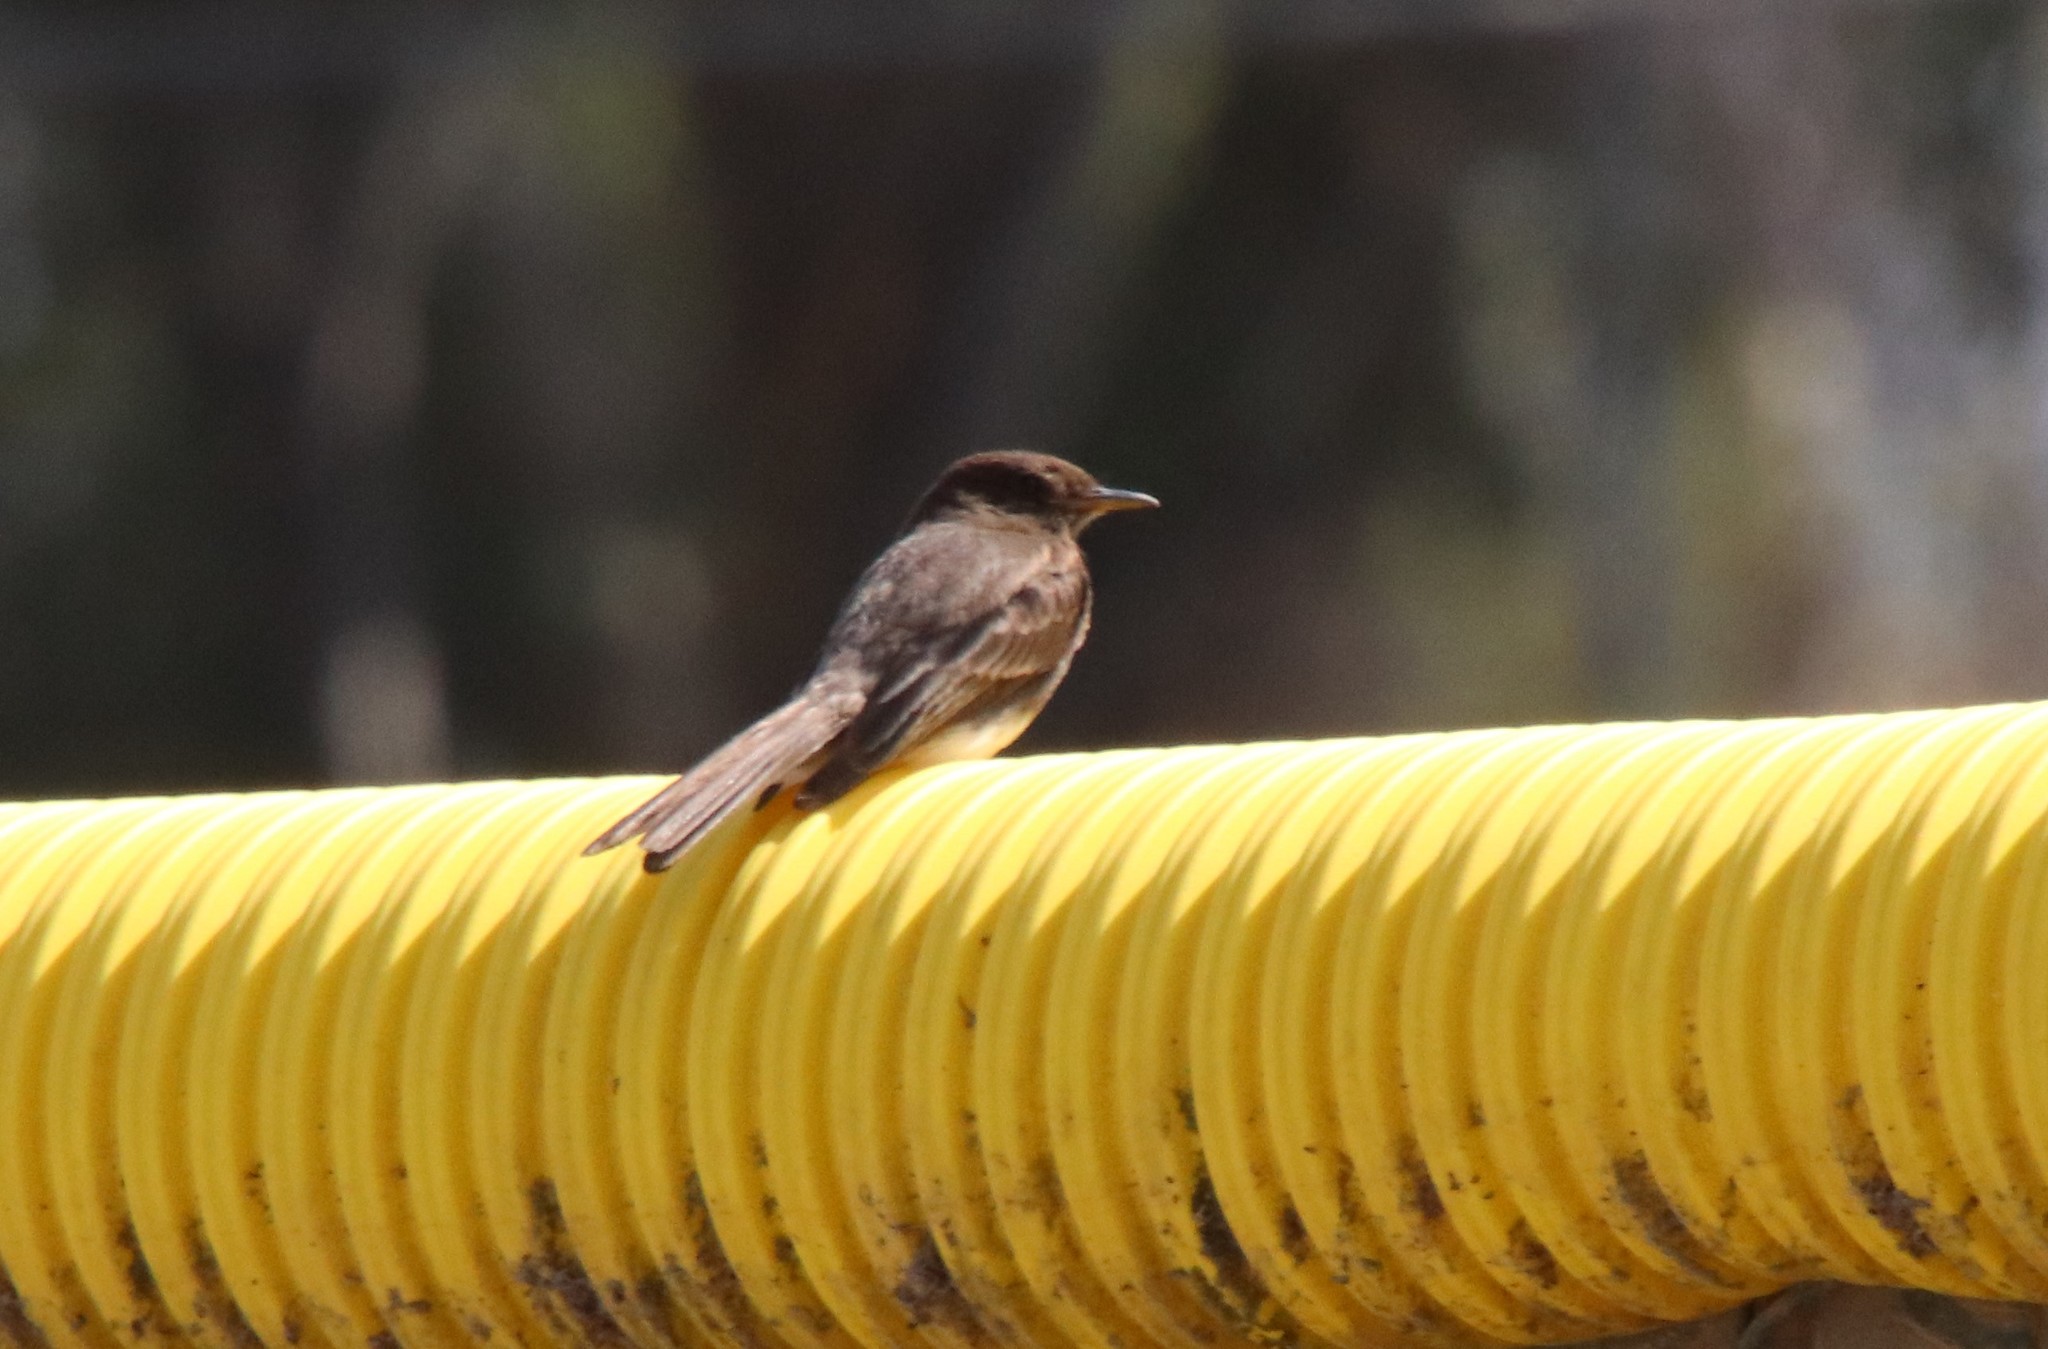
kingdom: Animalia
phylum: Chordata
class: Aves
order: Passeriformes
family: Tyrannidae
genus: Sayornis
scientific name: Sayornis nigricans
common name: Black phoebe
